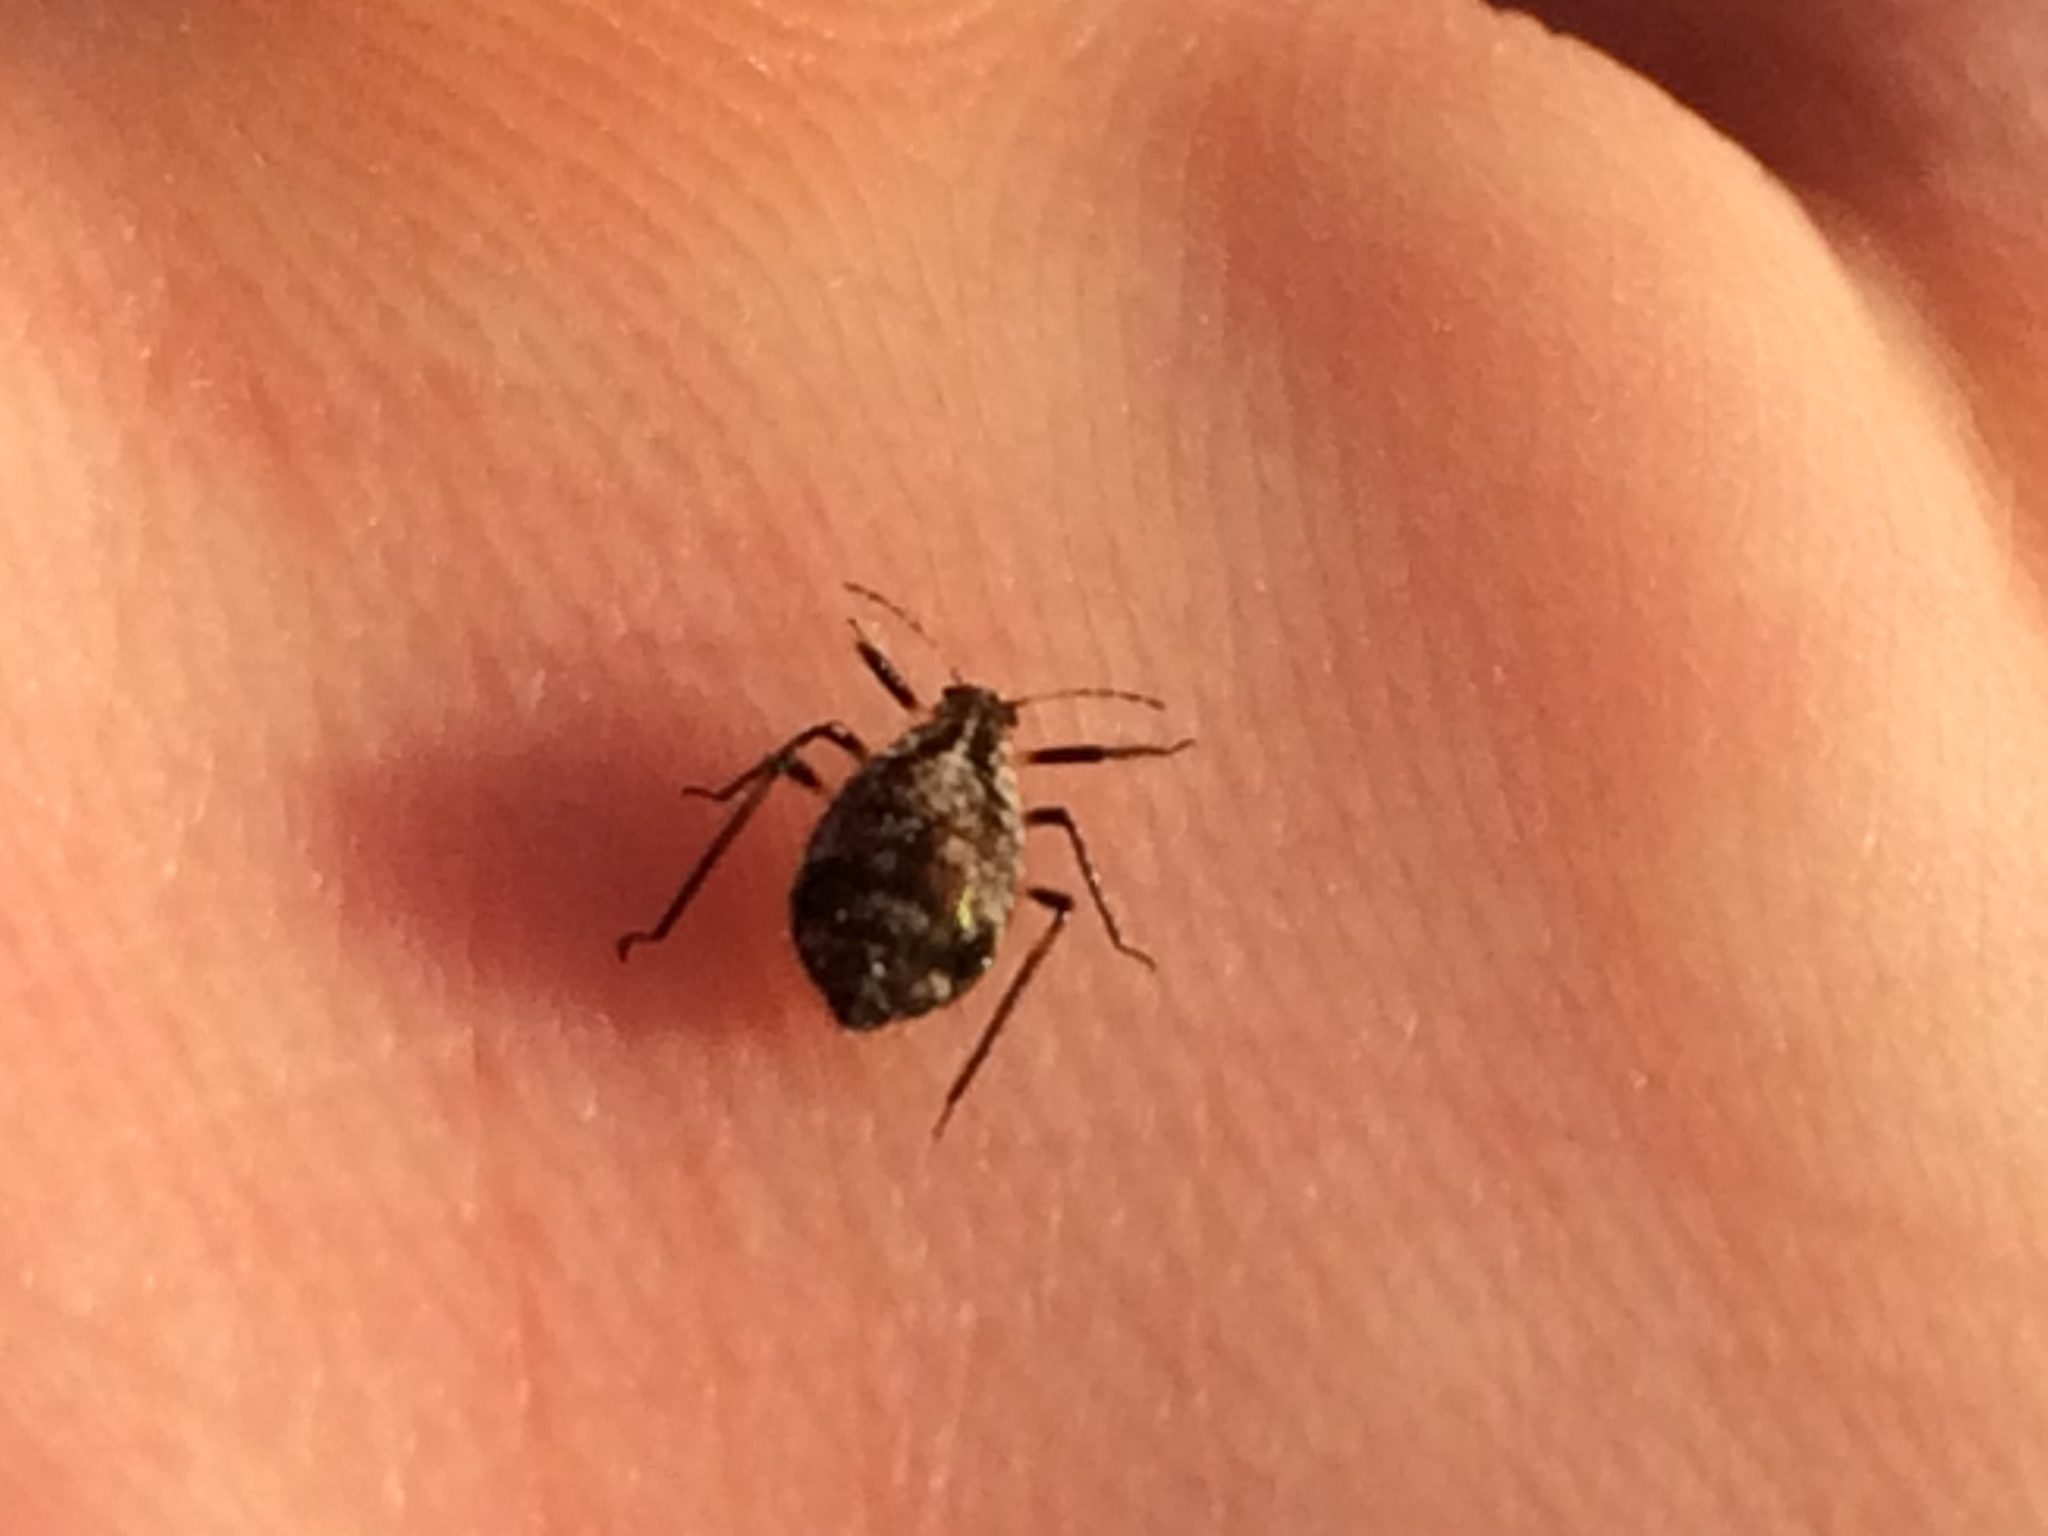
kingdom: Animalia
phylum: Arthropoda
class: Insecta
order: Hemiptera
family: Aphididae
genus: Cinara
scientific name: Cinara
